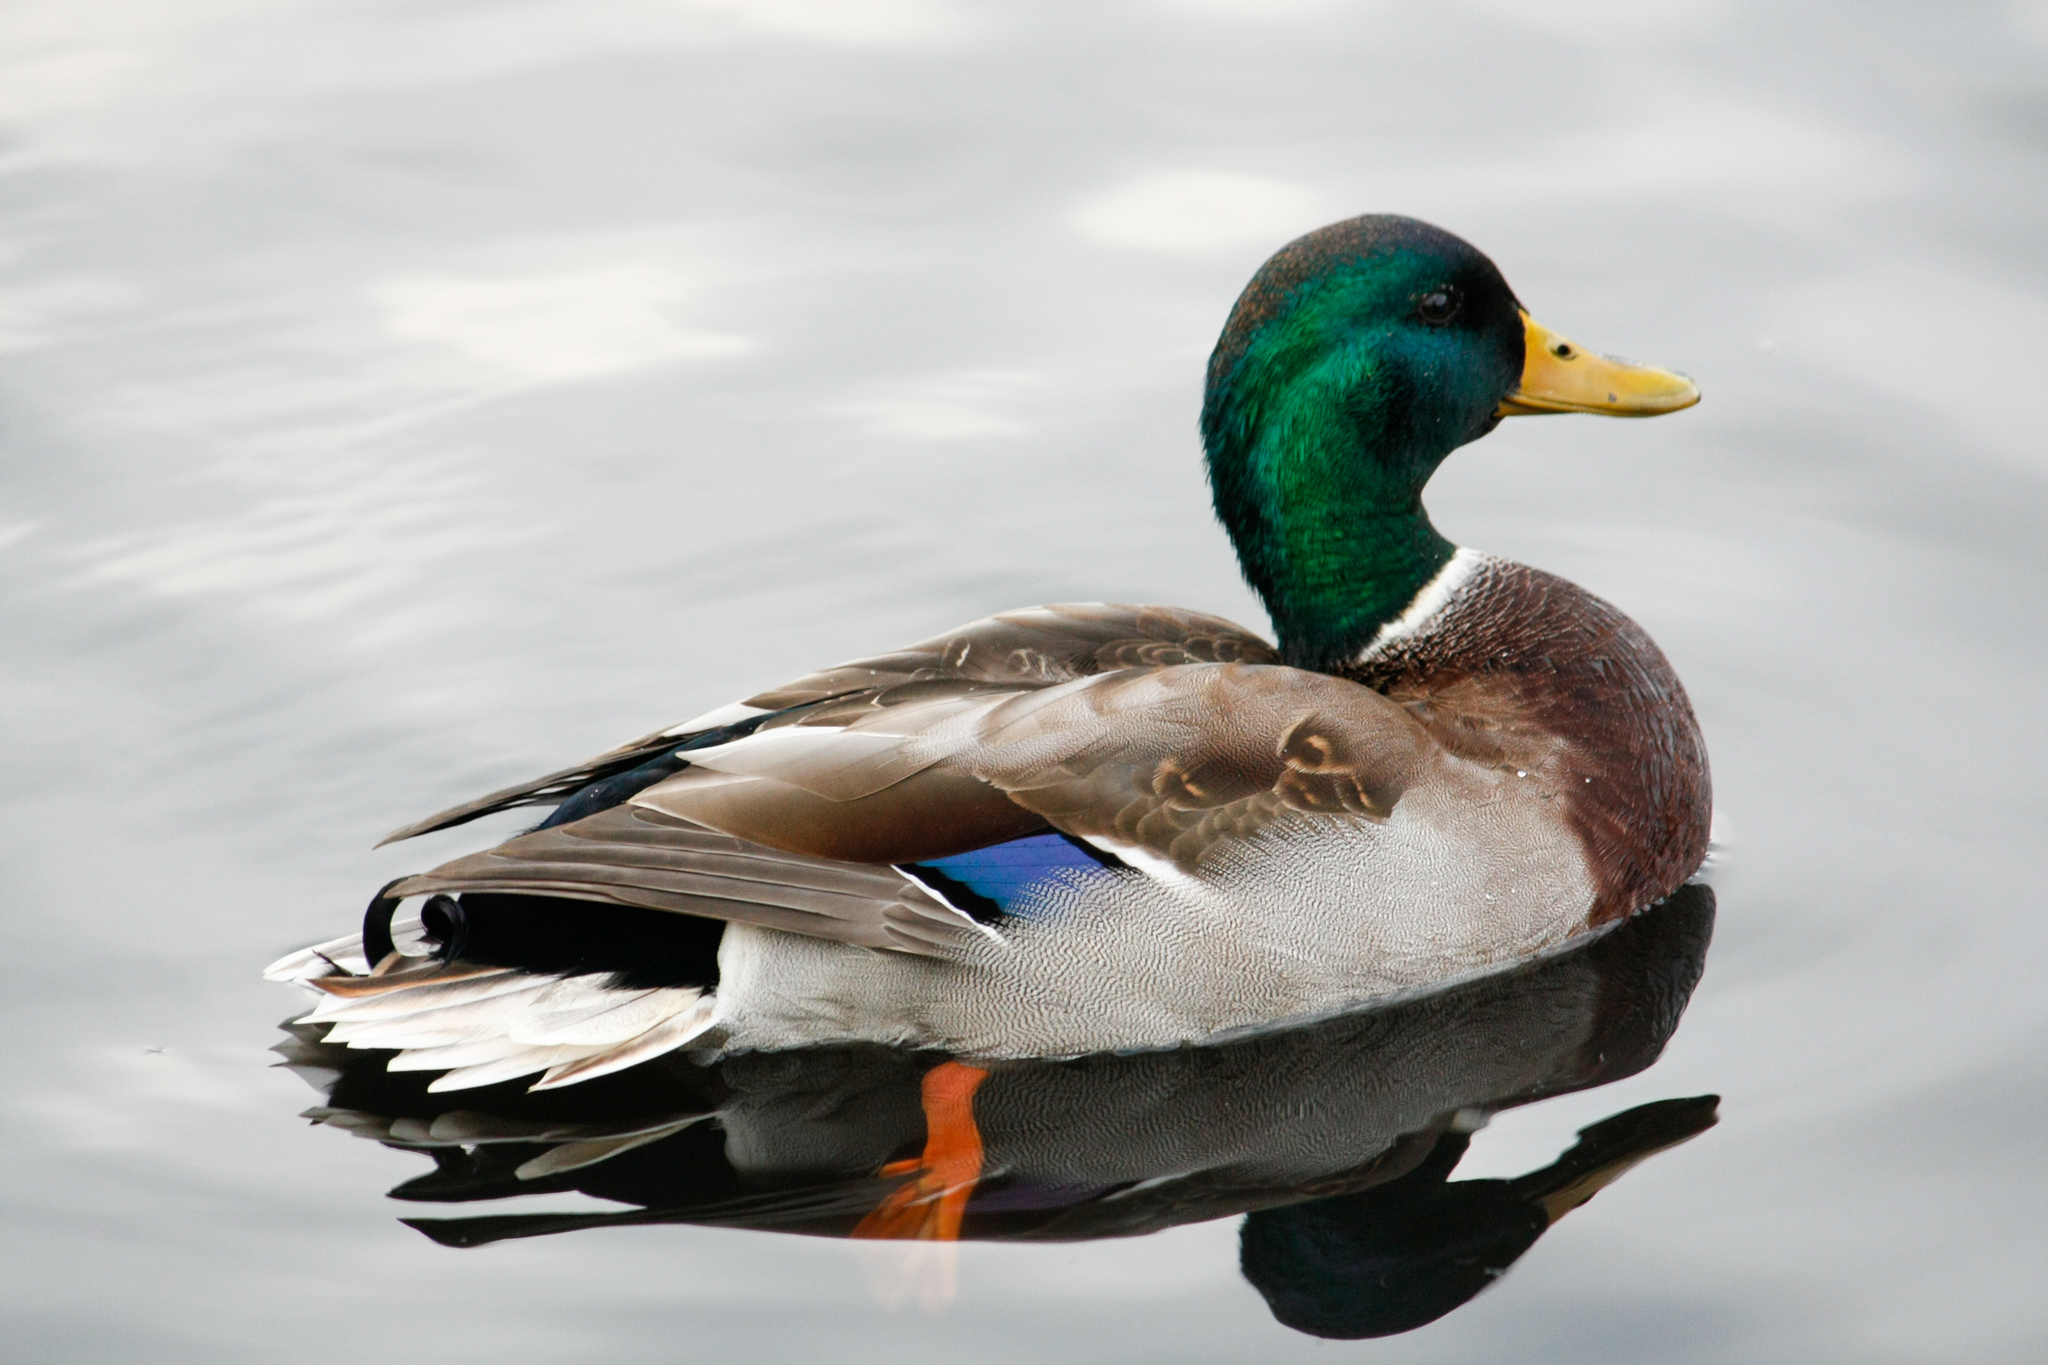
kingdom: Animalia
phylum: Chordata
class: Aves
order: Anseriformes
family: Anatidae
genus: Anas
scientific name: Anas platyrhynchos
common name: Mallard
